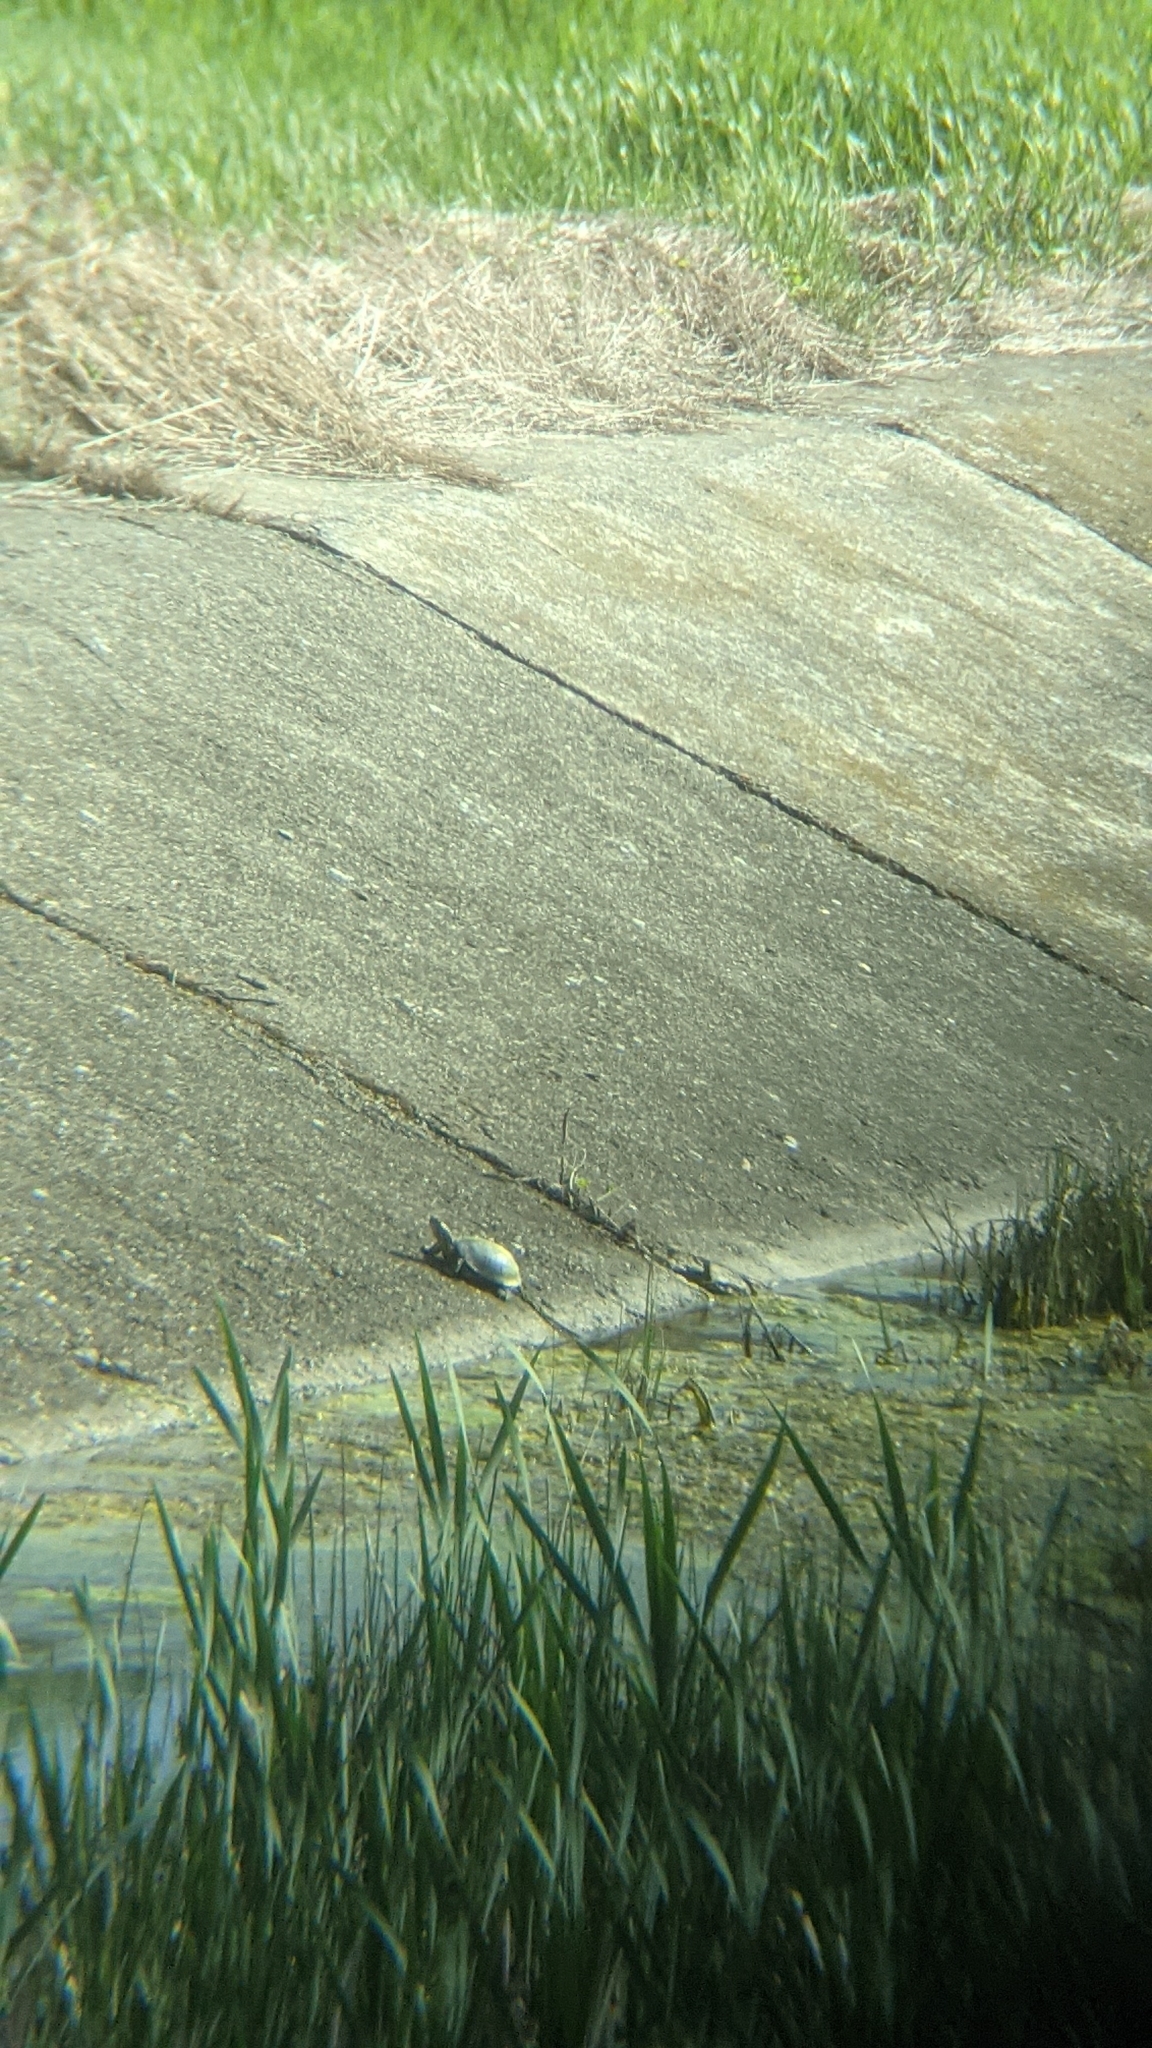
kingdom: Animalia
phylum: Chordata
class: Testudines
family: Emydidae
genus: Emys
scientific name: Emys orbicularis
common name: European pond turtle
